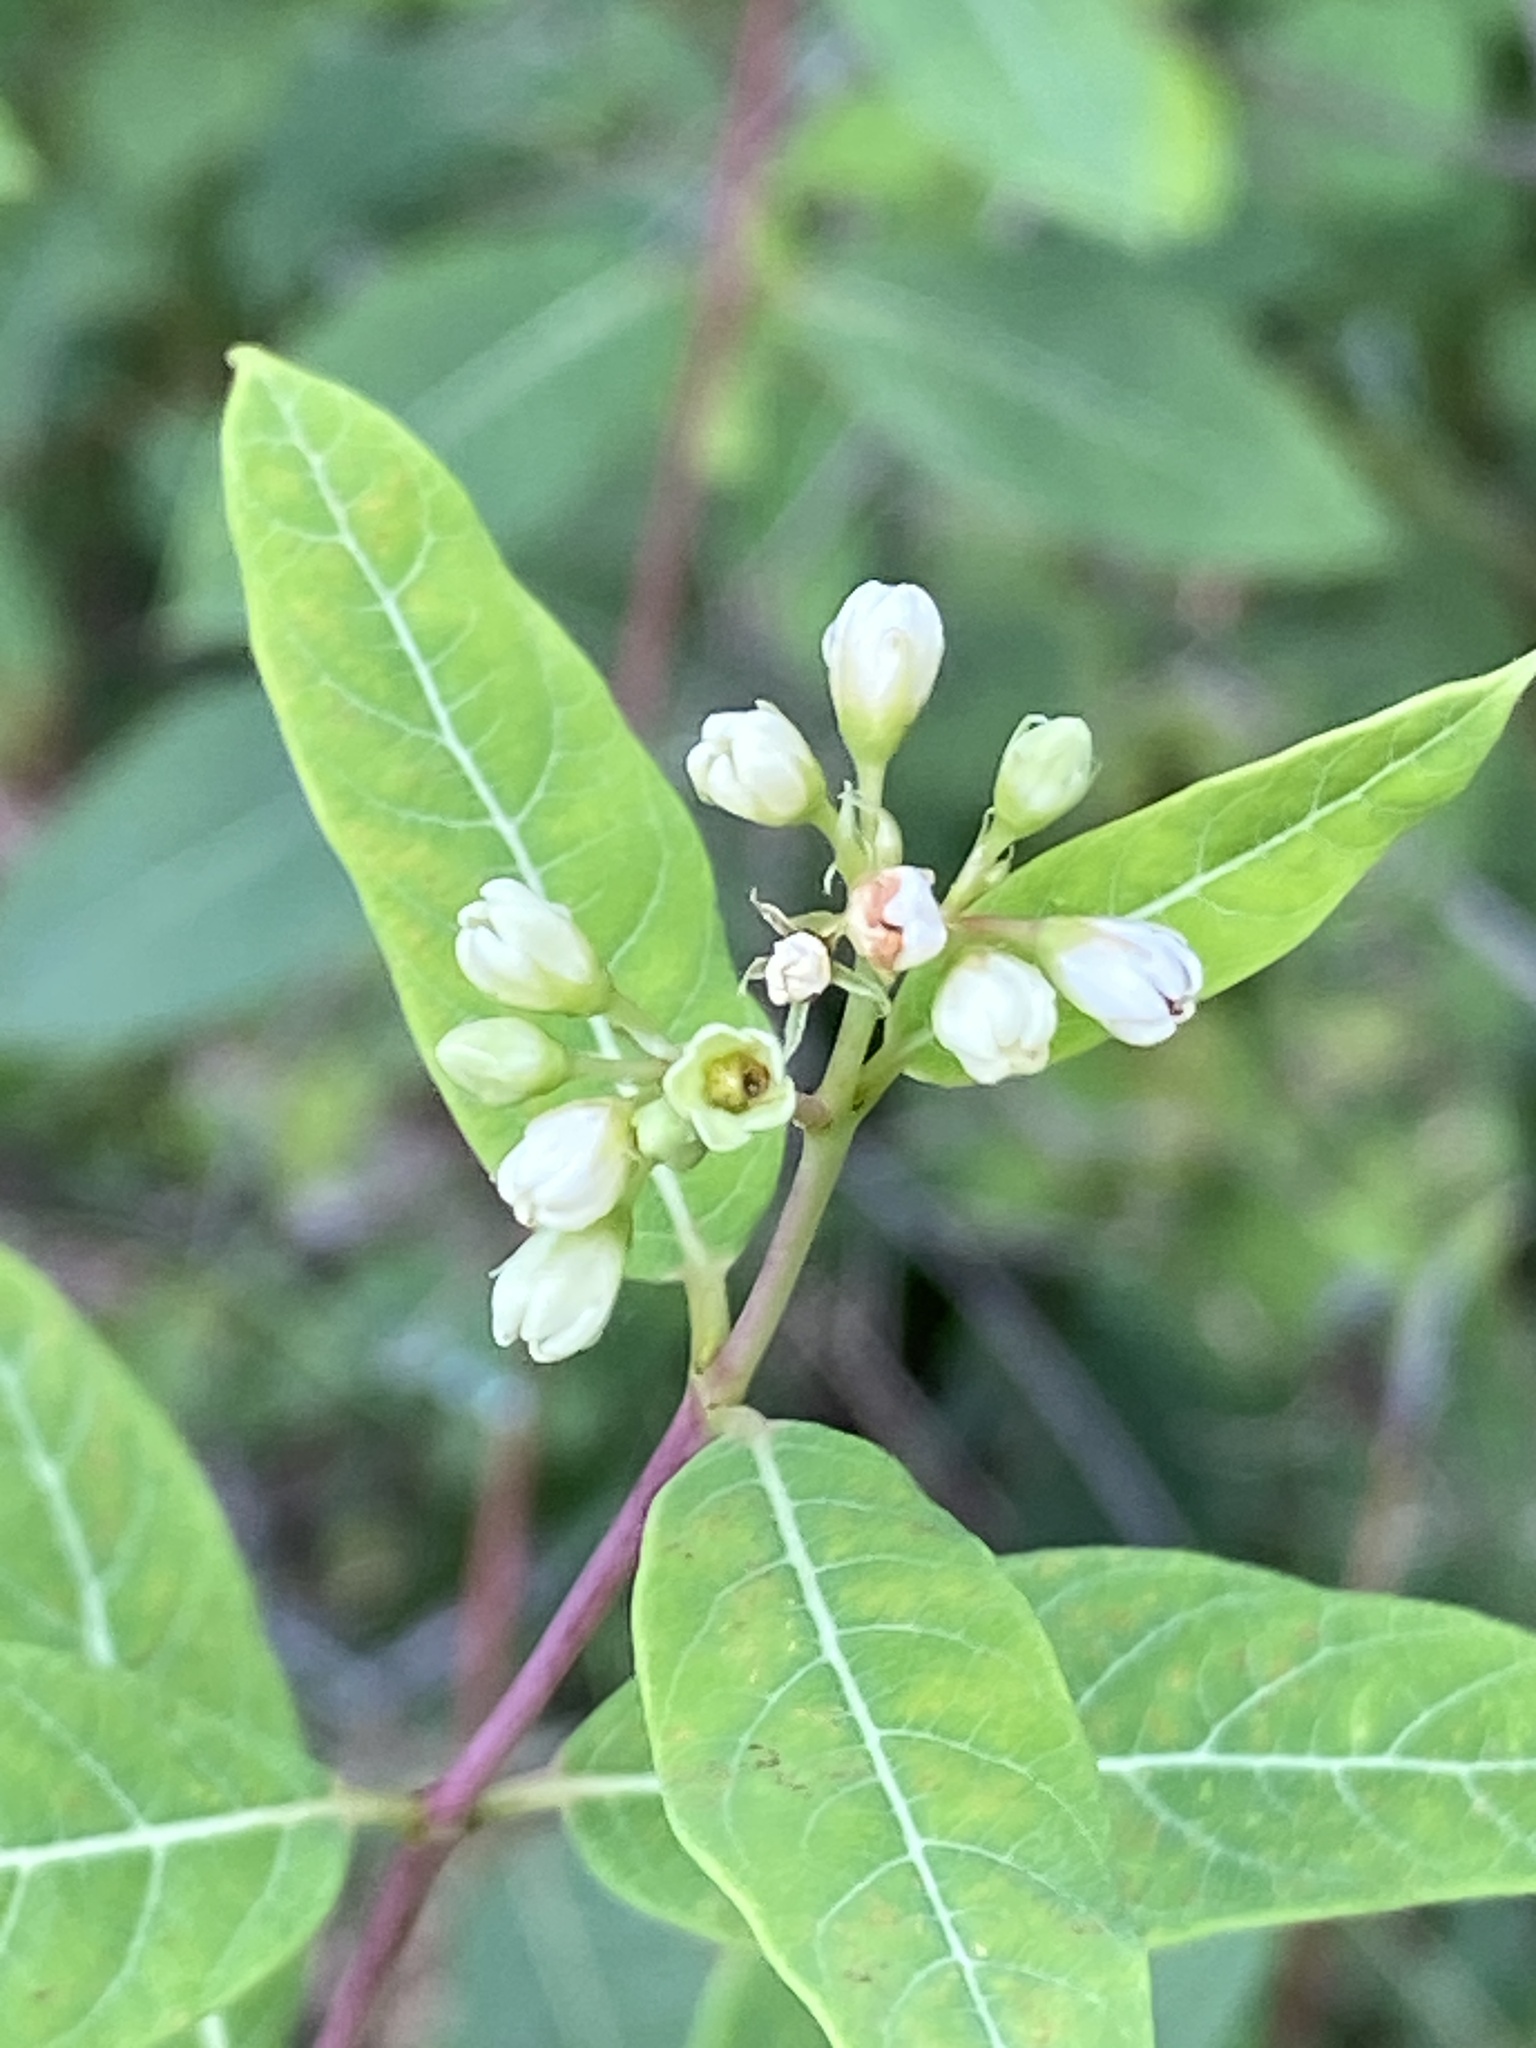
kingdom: Plantae
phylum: Tracheophyta
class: Magnoliopsida
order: Gentianales
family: Apocynaceae
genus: Apocynum
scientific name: Apocynum cannabinum
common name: Hemp dogbane
